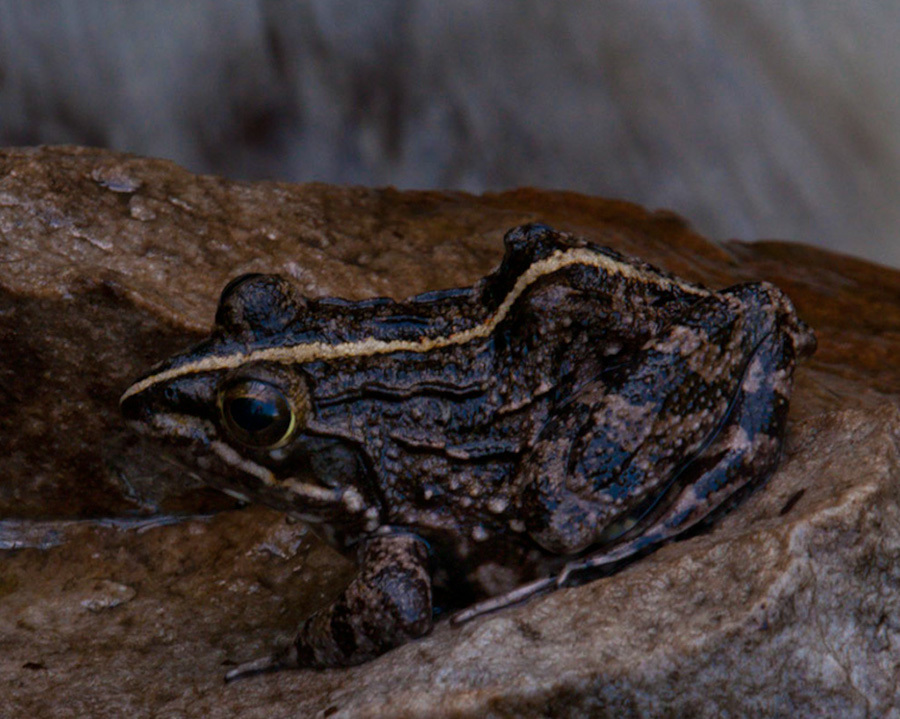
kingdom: Animalia
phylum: Chordata
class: Amphibia
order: Anura
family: Pyxicephalidae
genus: Amietia
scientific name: Amietia fuscigula
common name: Cape rana
